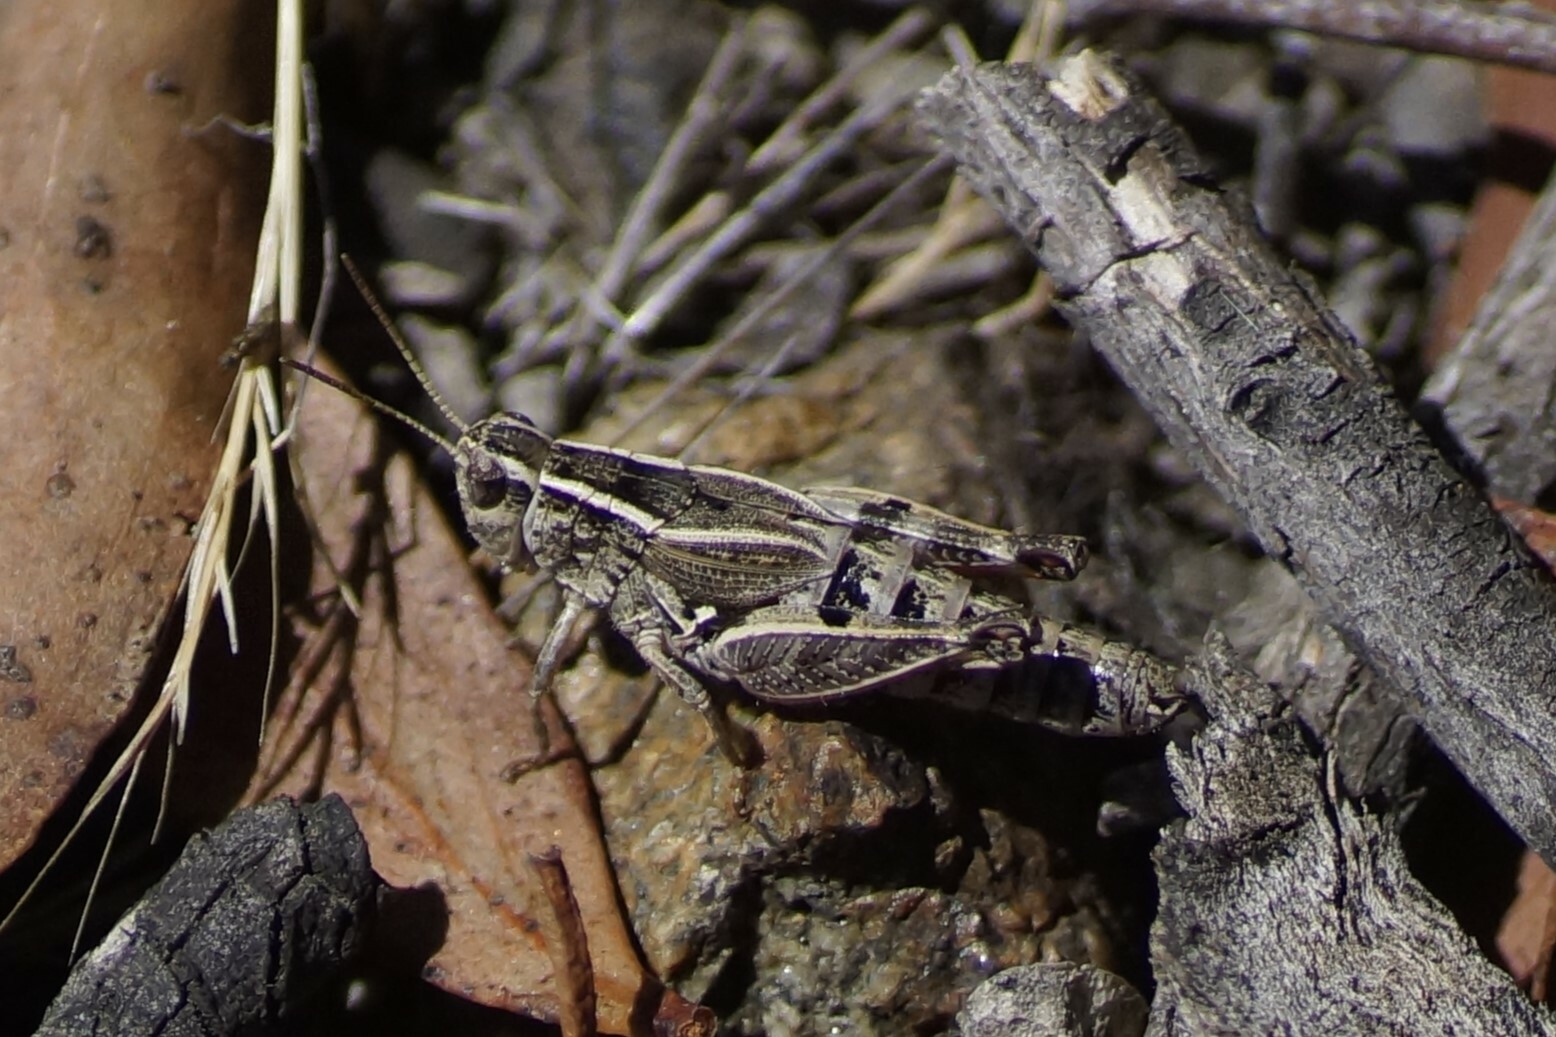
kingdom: Animalia
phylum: Arthropoda
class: Insecta
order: Orthoptera
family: Acrididae
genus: Phaulacridium
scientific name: Phaulacridium vittatum
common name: Wingless grasshopper
